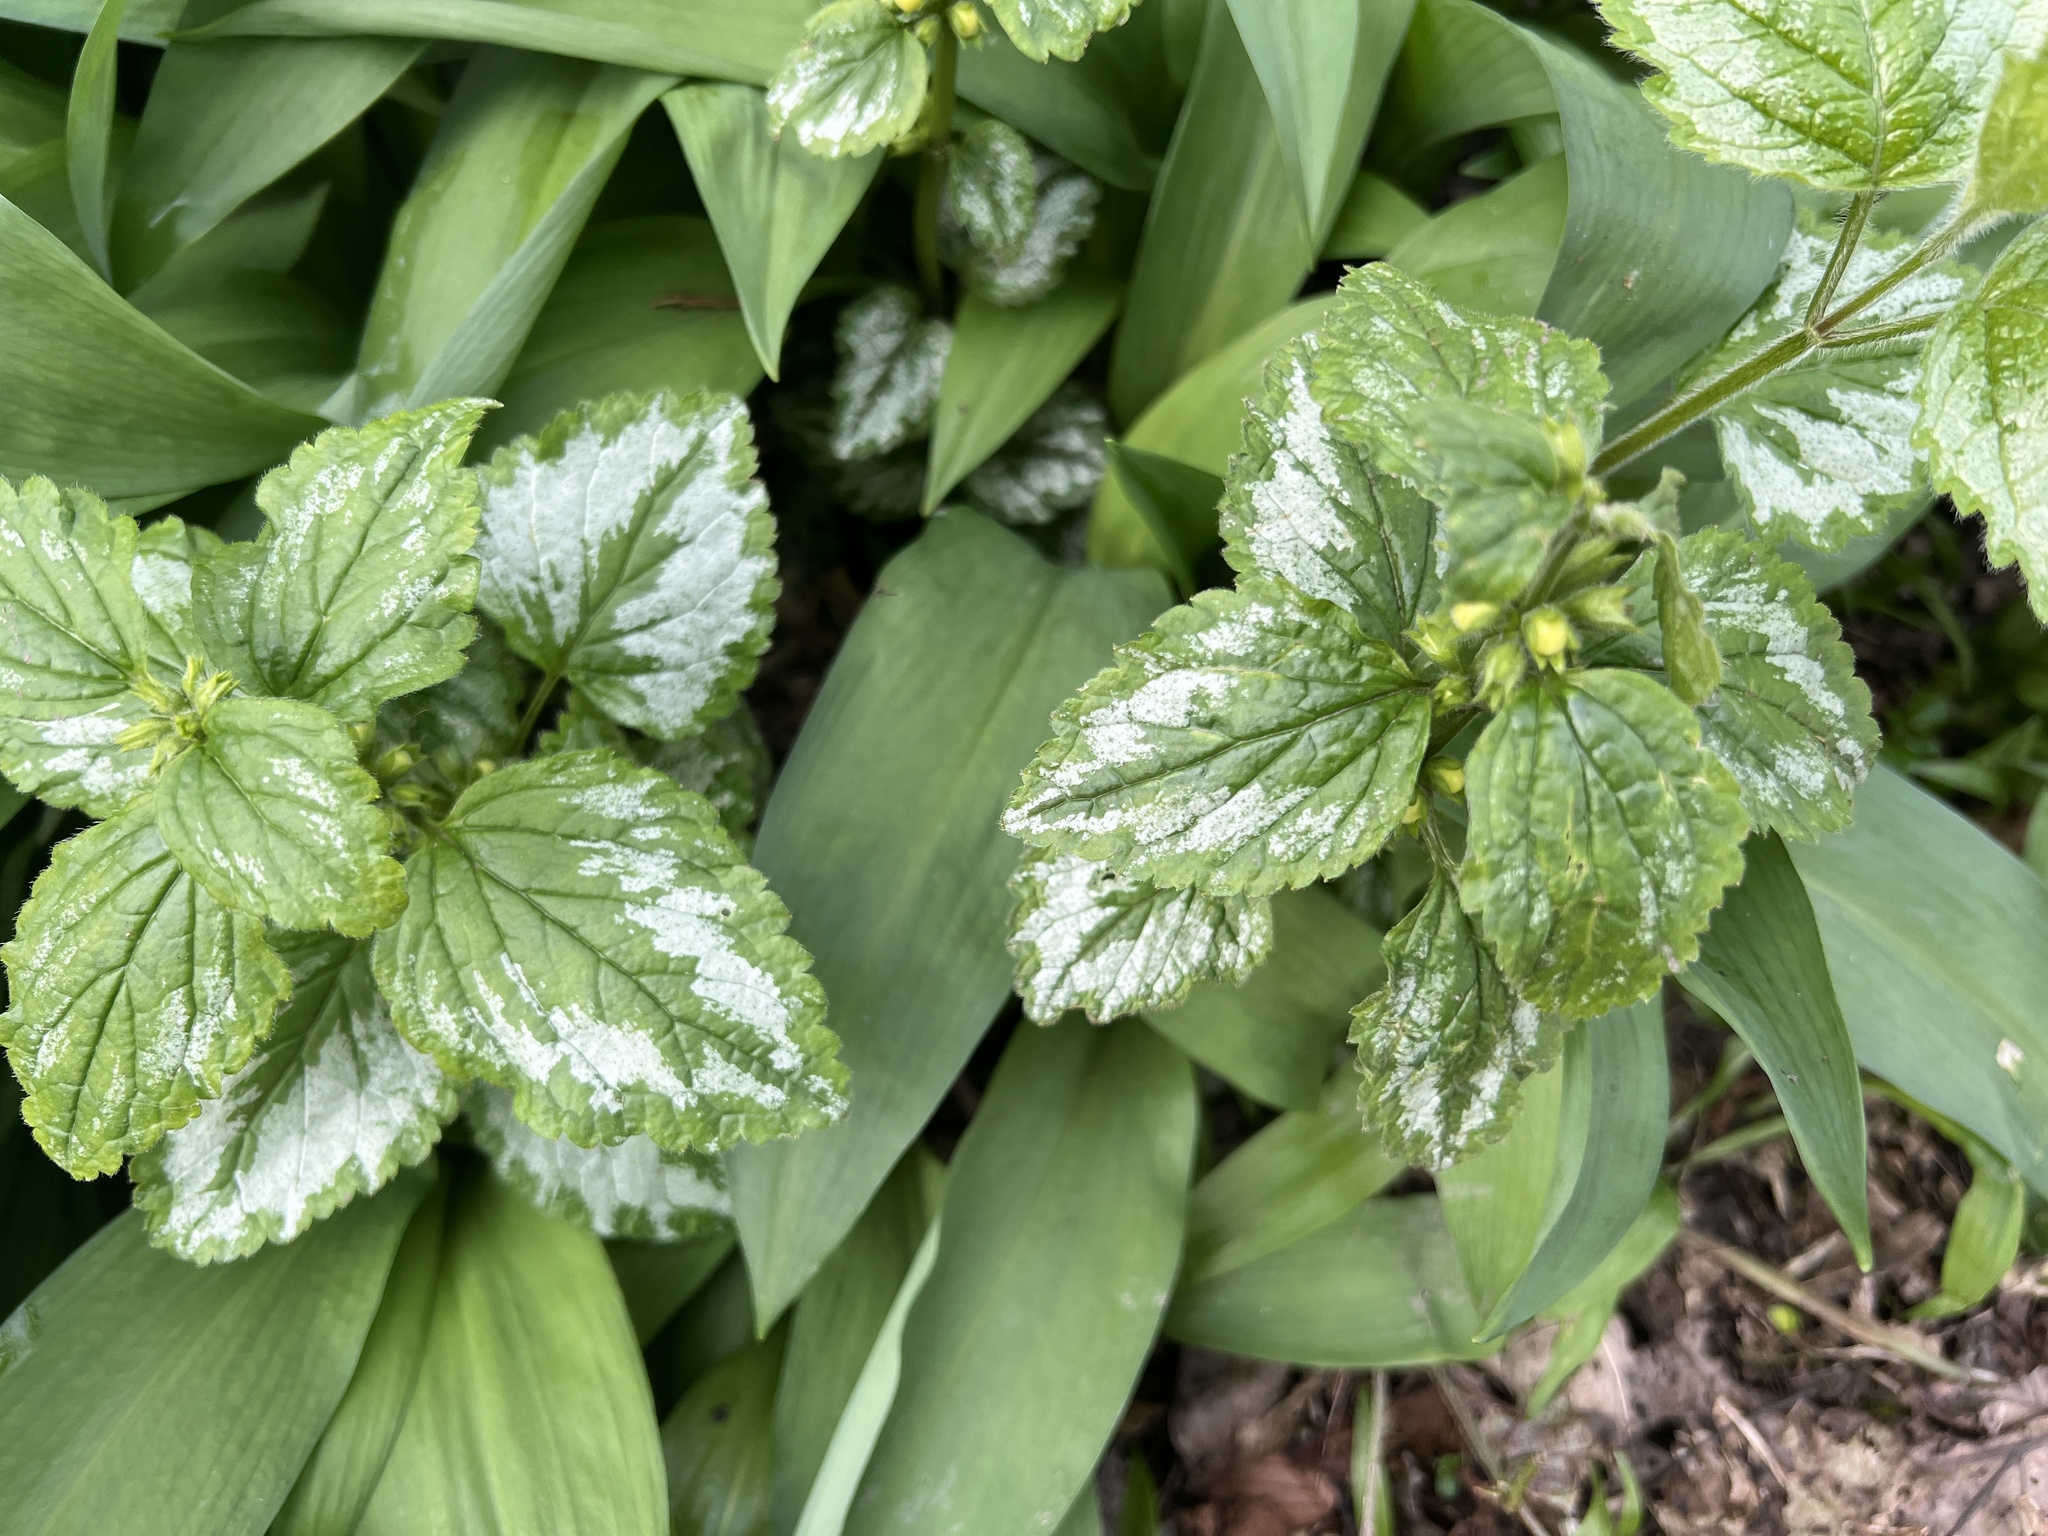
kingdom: Plantae
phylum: Tracheophyta
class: Magnoliopsida
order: Lamiales
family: Lamiaceae
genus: Lamium
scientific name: Lamium galeobdolon
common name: Yellow archangel
